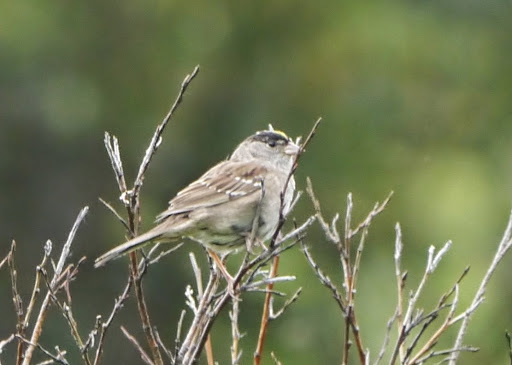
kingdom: Animalia
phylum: Chordata
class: Aves
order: Passeriformes
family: Passerellidae
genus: Zonotrichia
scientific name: Zonotrichia atricapilla
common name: Golden-crowned sparrow
